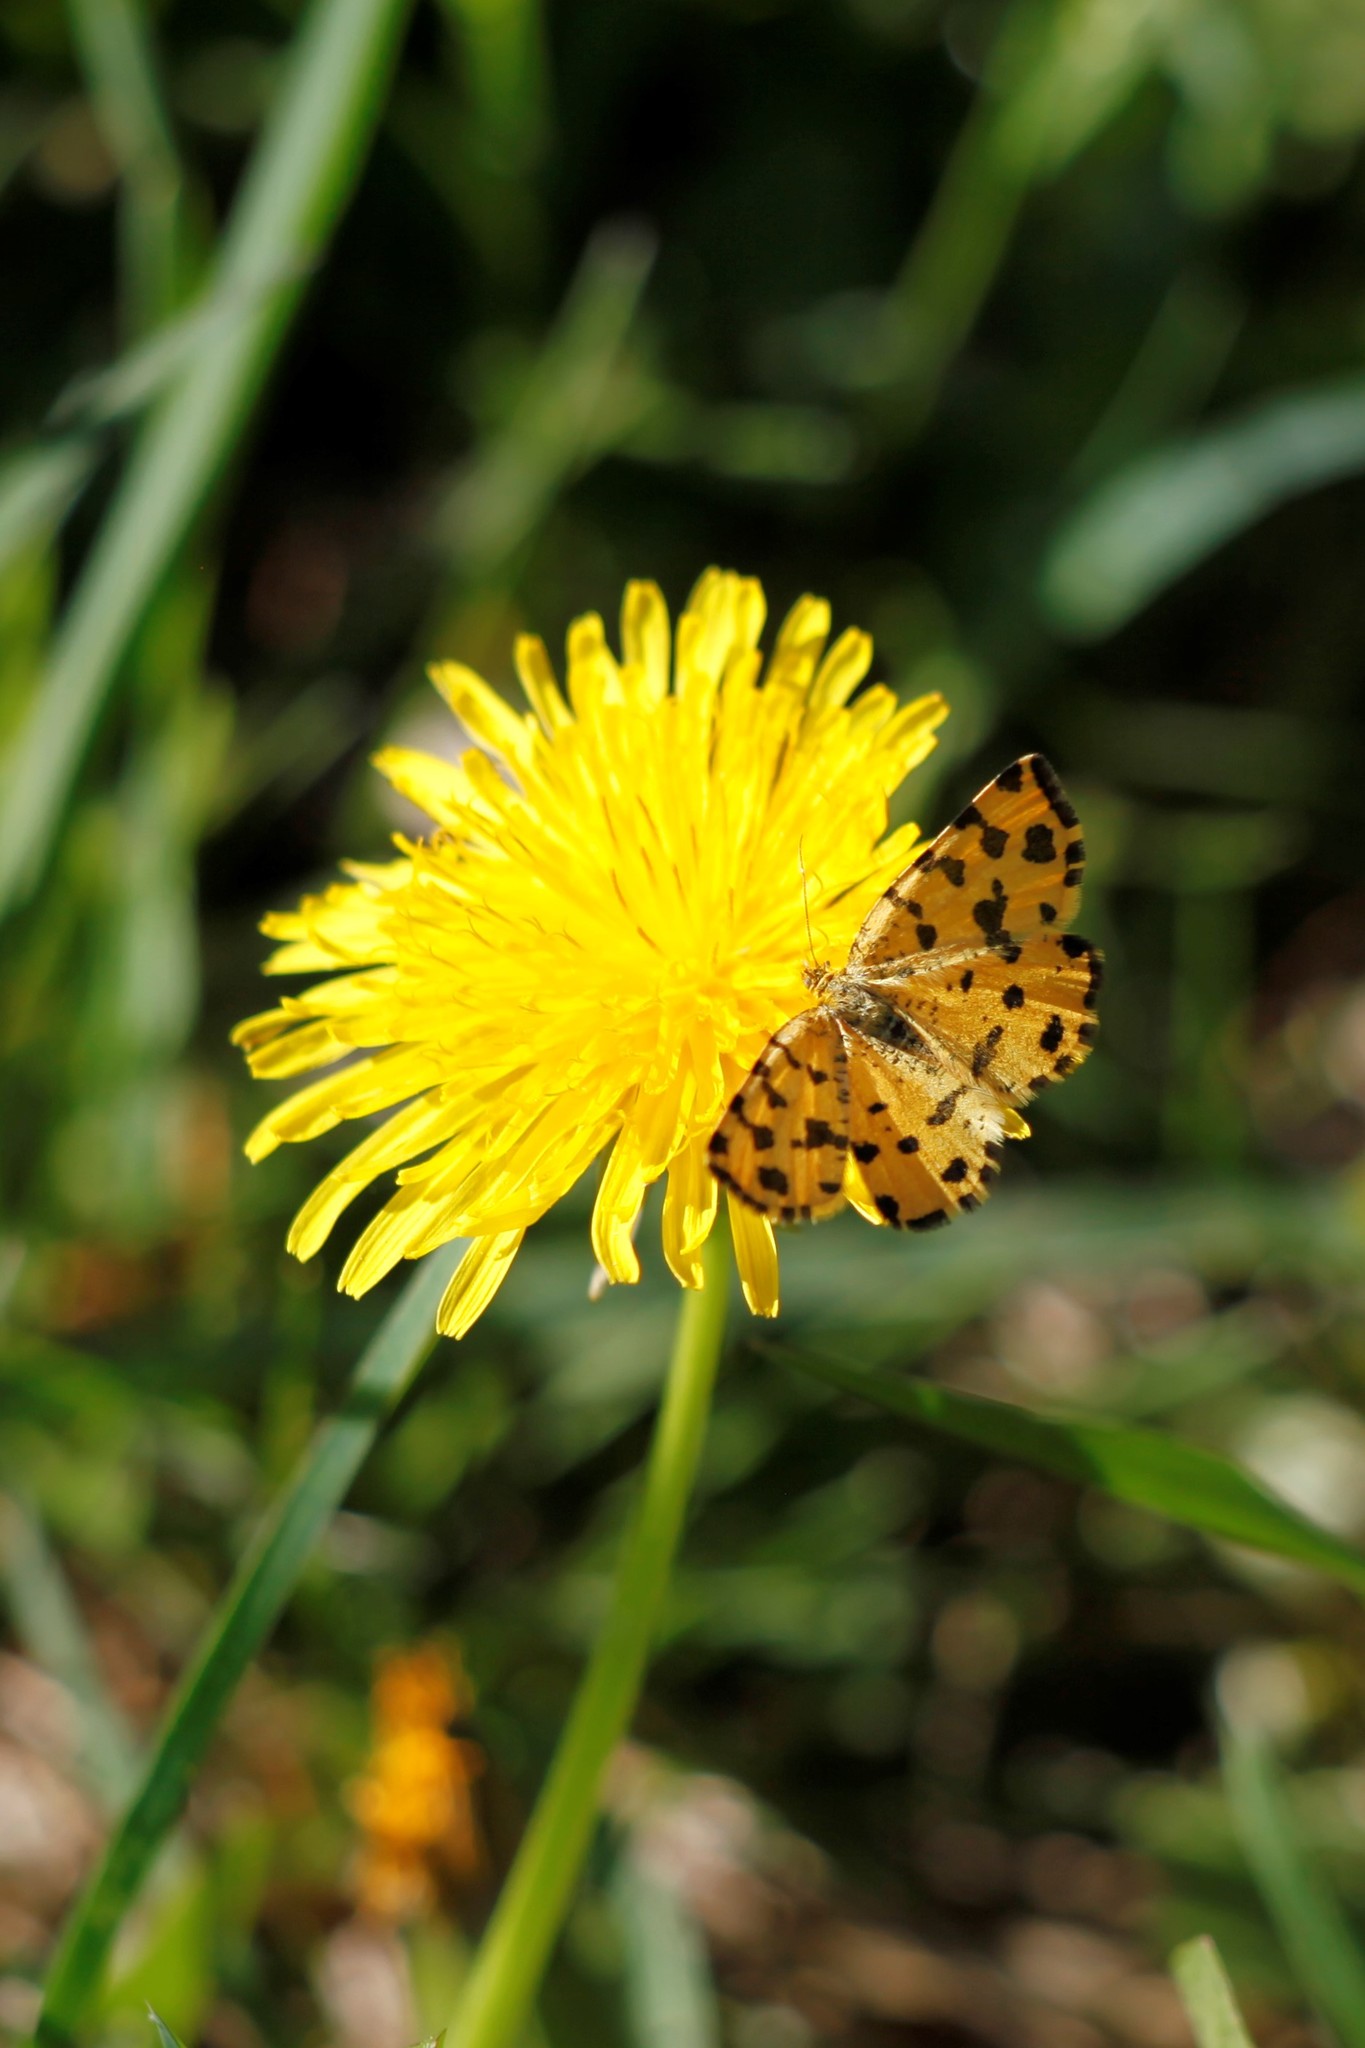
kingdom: Animalia
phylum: Arthropoda
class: Insecta
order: Lepidoptera
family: Geometridae
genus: Pseudopanthera
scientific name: Pseudopanthera macularia
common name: Speckled yellow
